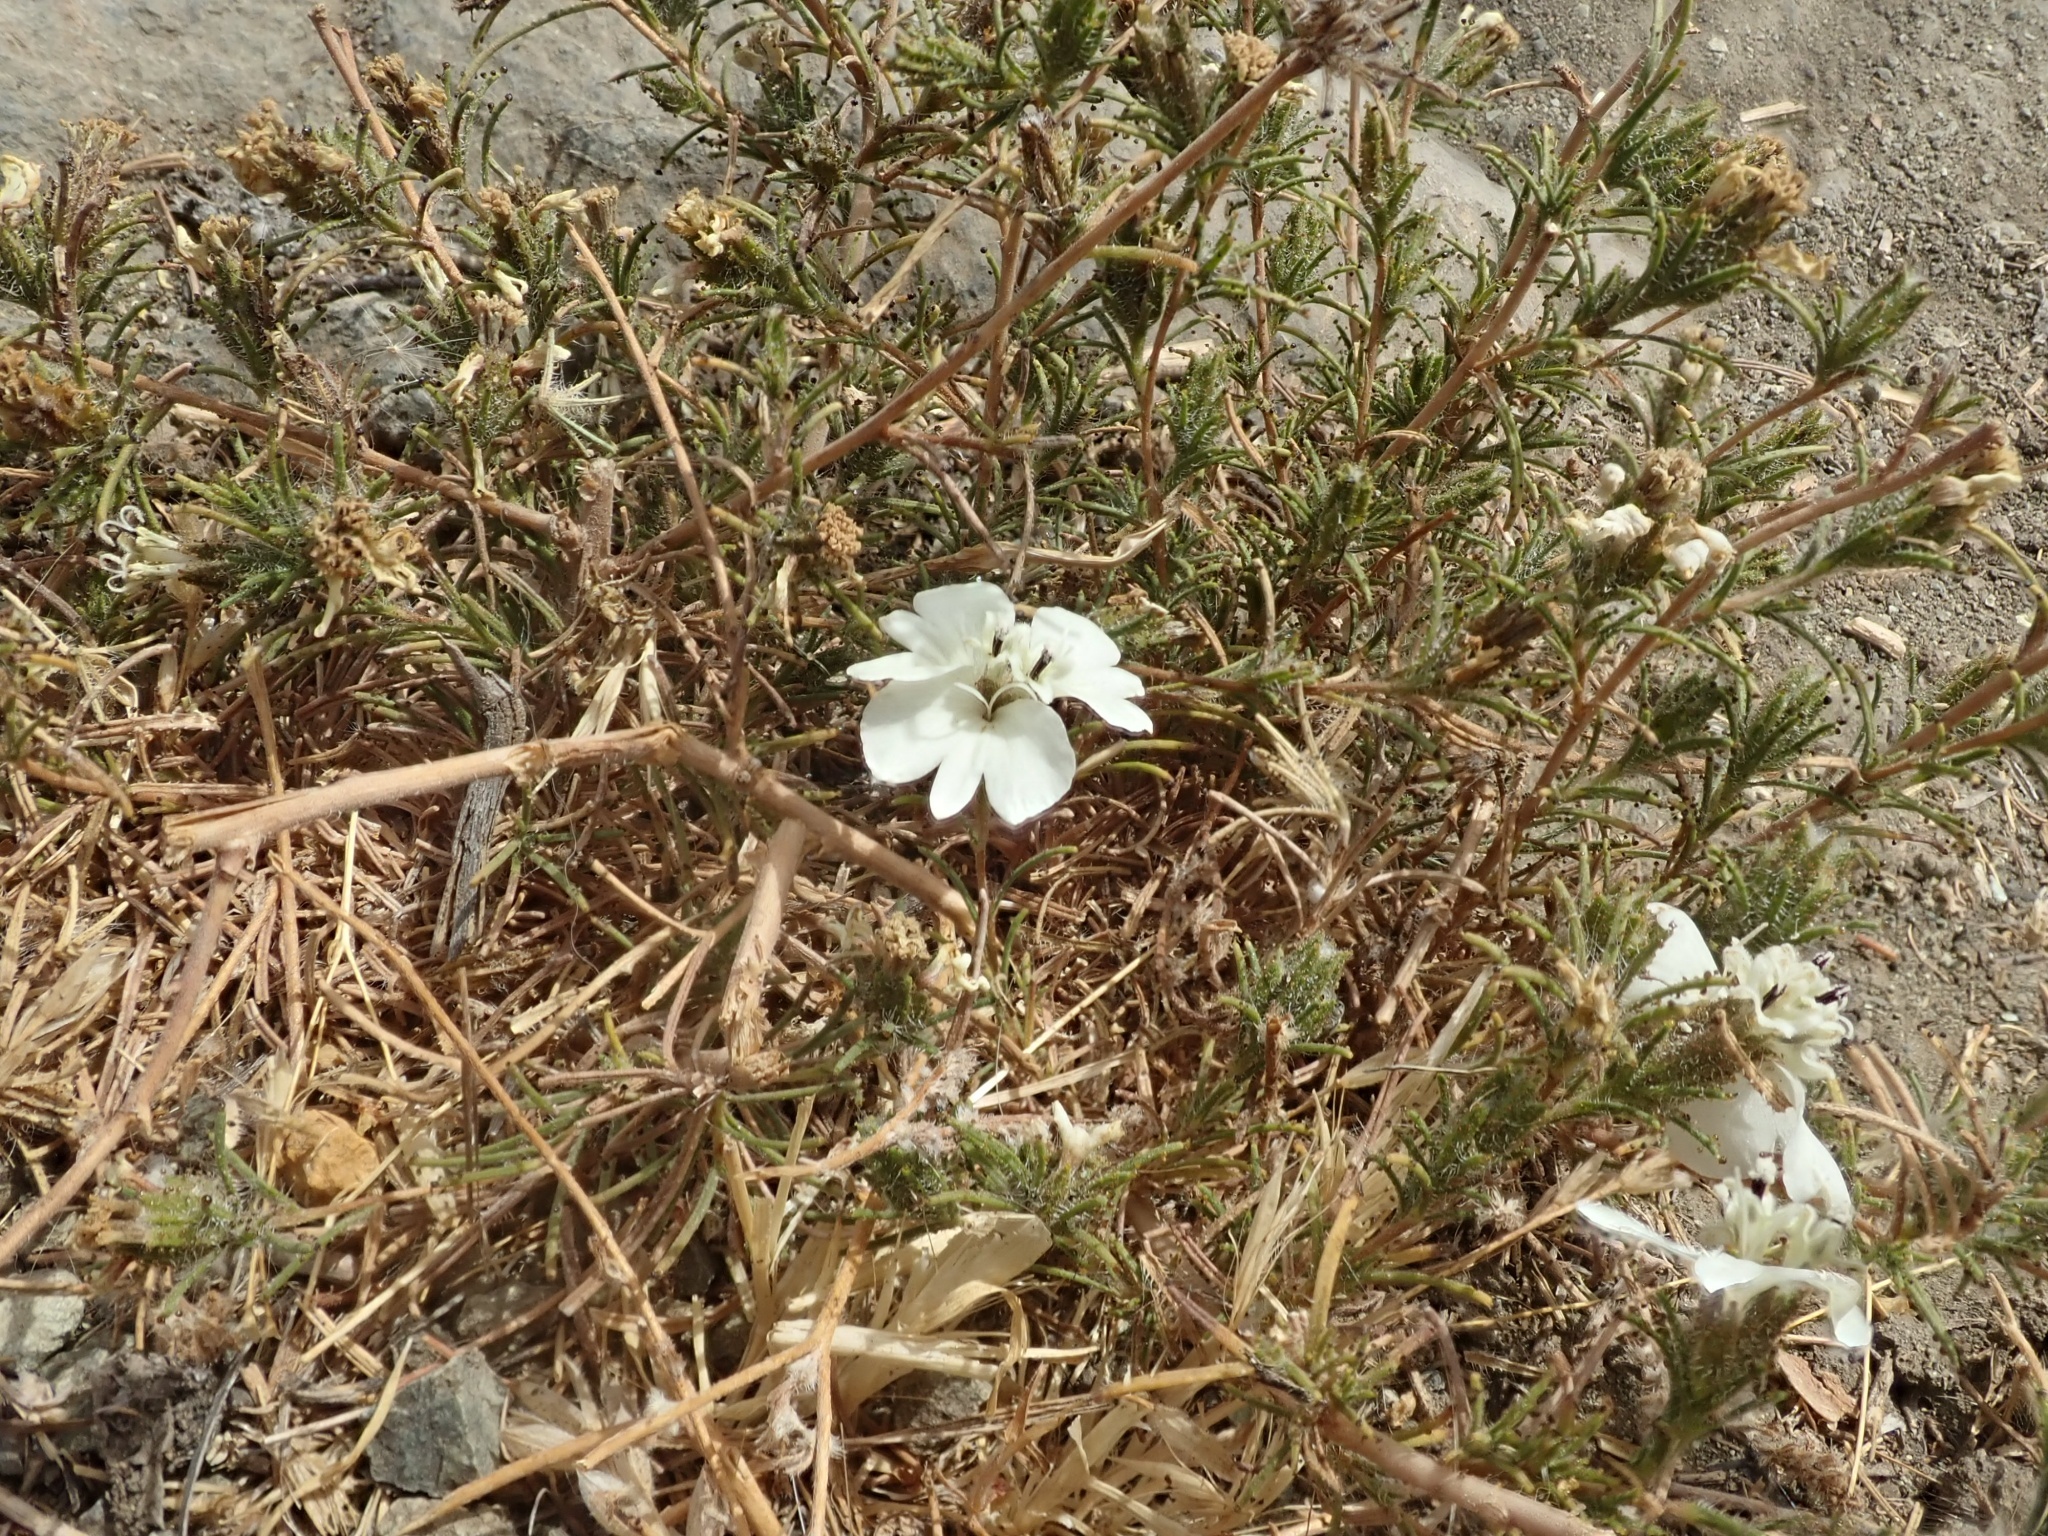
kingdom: Plantae
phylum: Tracheophyta
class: Magnoliopsida
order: Asterales
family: Asteraceae
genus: Calycadenia
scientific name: Calycadenia multiglandulosa
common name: Sticky calycadenia
